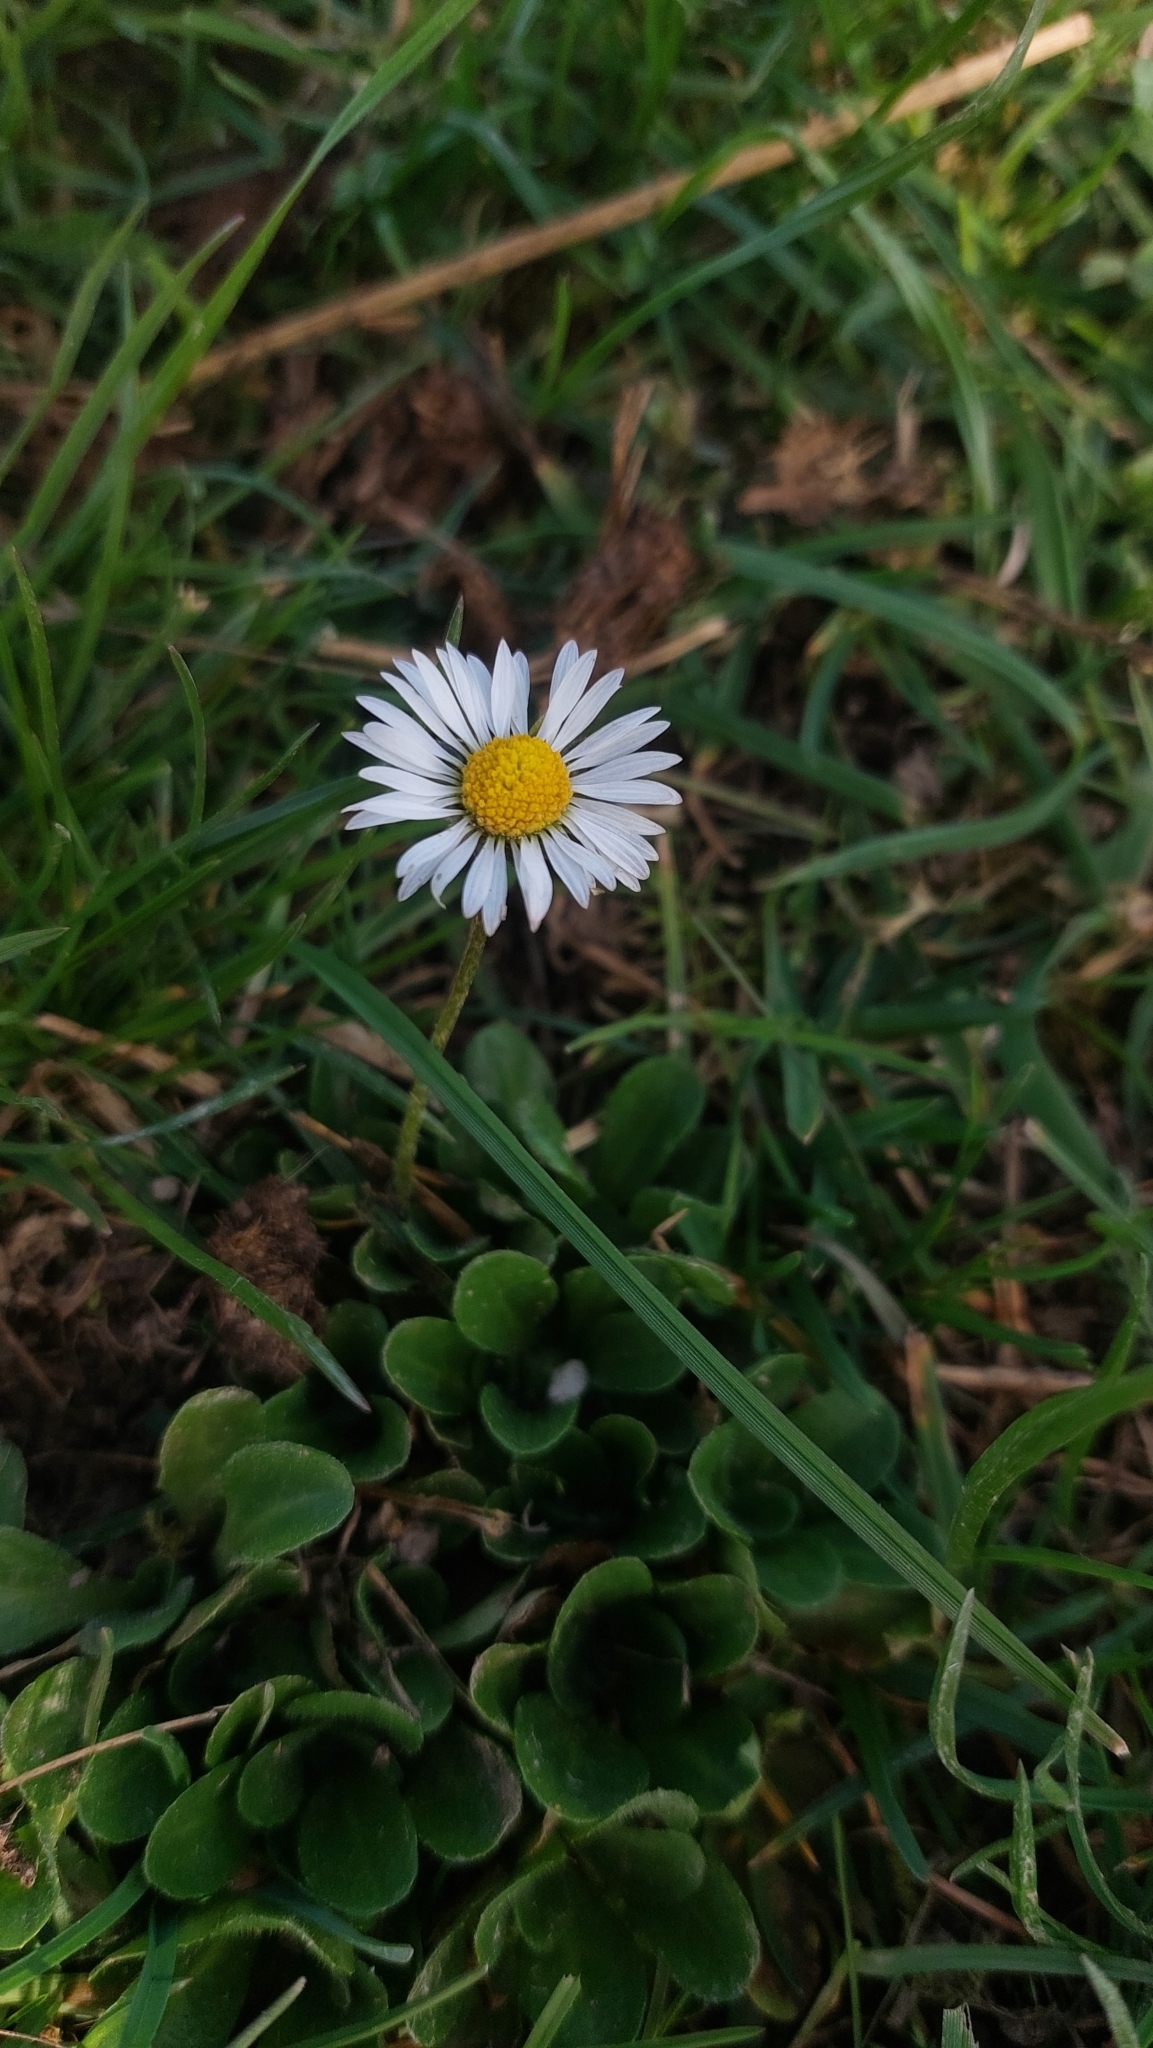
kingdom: Plantae
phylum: Tracheophyta
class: Magnoliopsida
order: Asterales
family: Asteraceae
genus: Bellis
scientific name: Bellis perennis
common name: Lawndaisy
